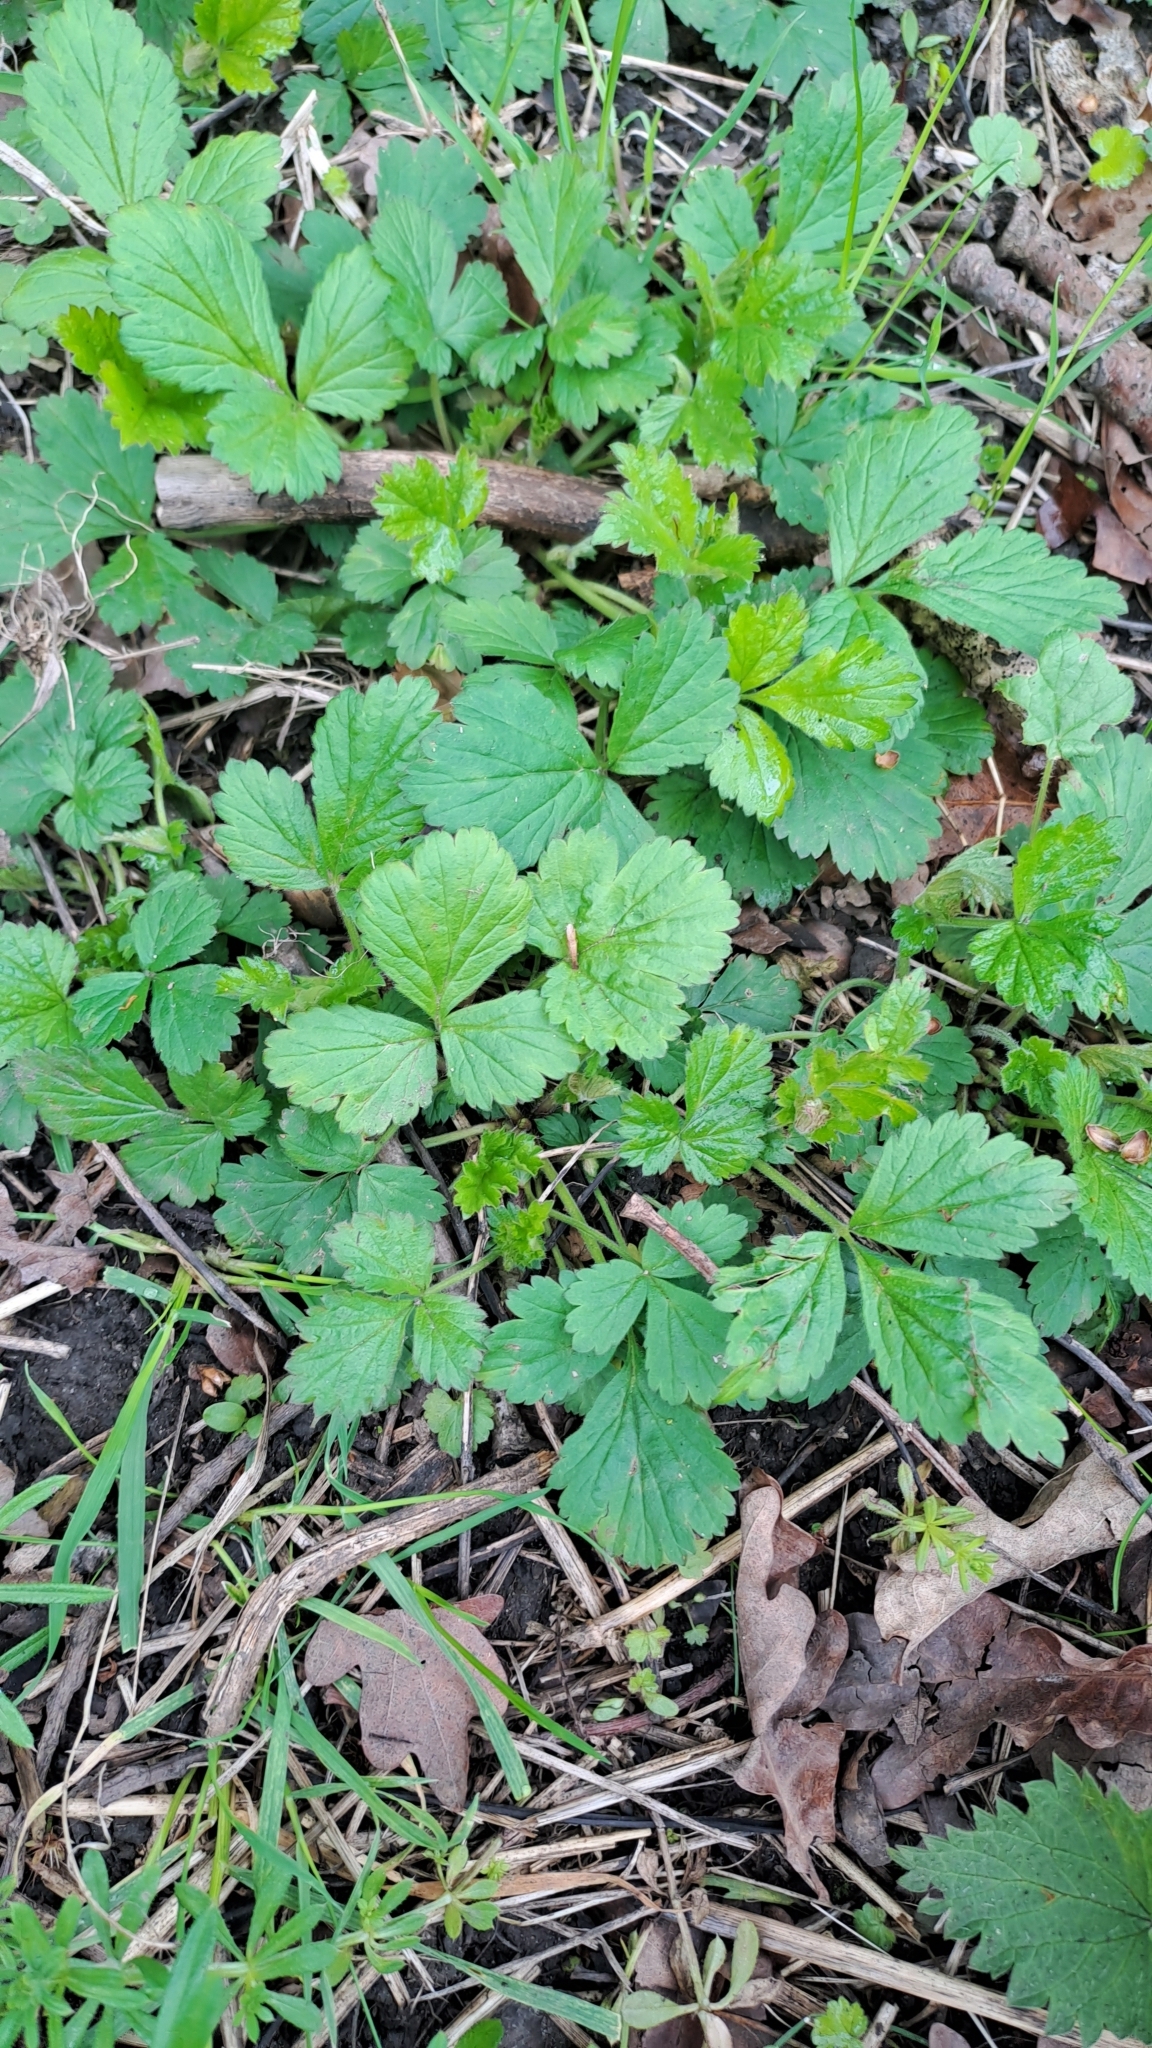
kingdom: Plantae
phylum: Tracheophyta
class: Magnoliopsida
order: Rosales
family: Rosaceae
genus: Geum
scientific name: Geum urbanum
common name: Wood avens
